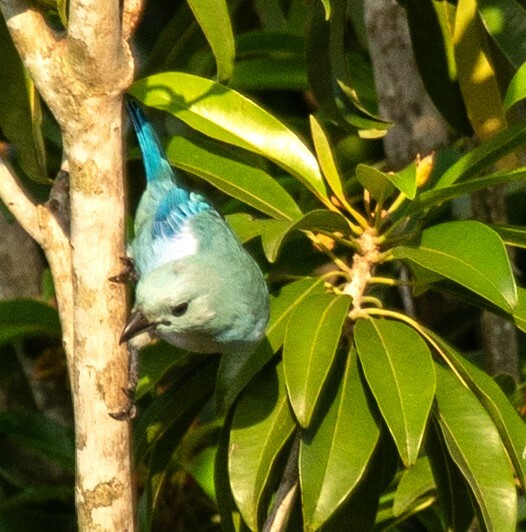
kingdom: Animalia
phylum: Chordata
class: Aves
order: Passeriformes
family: Thraupidae
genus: Thraupis
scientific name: Thraupis episcopus
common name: Blue-grey tanager
